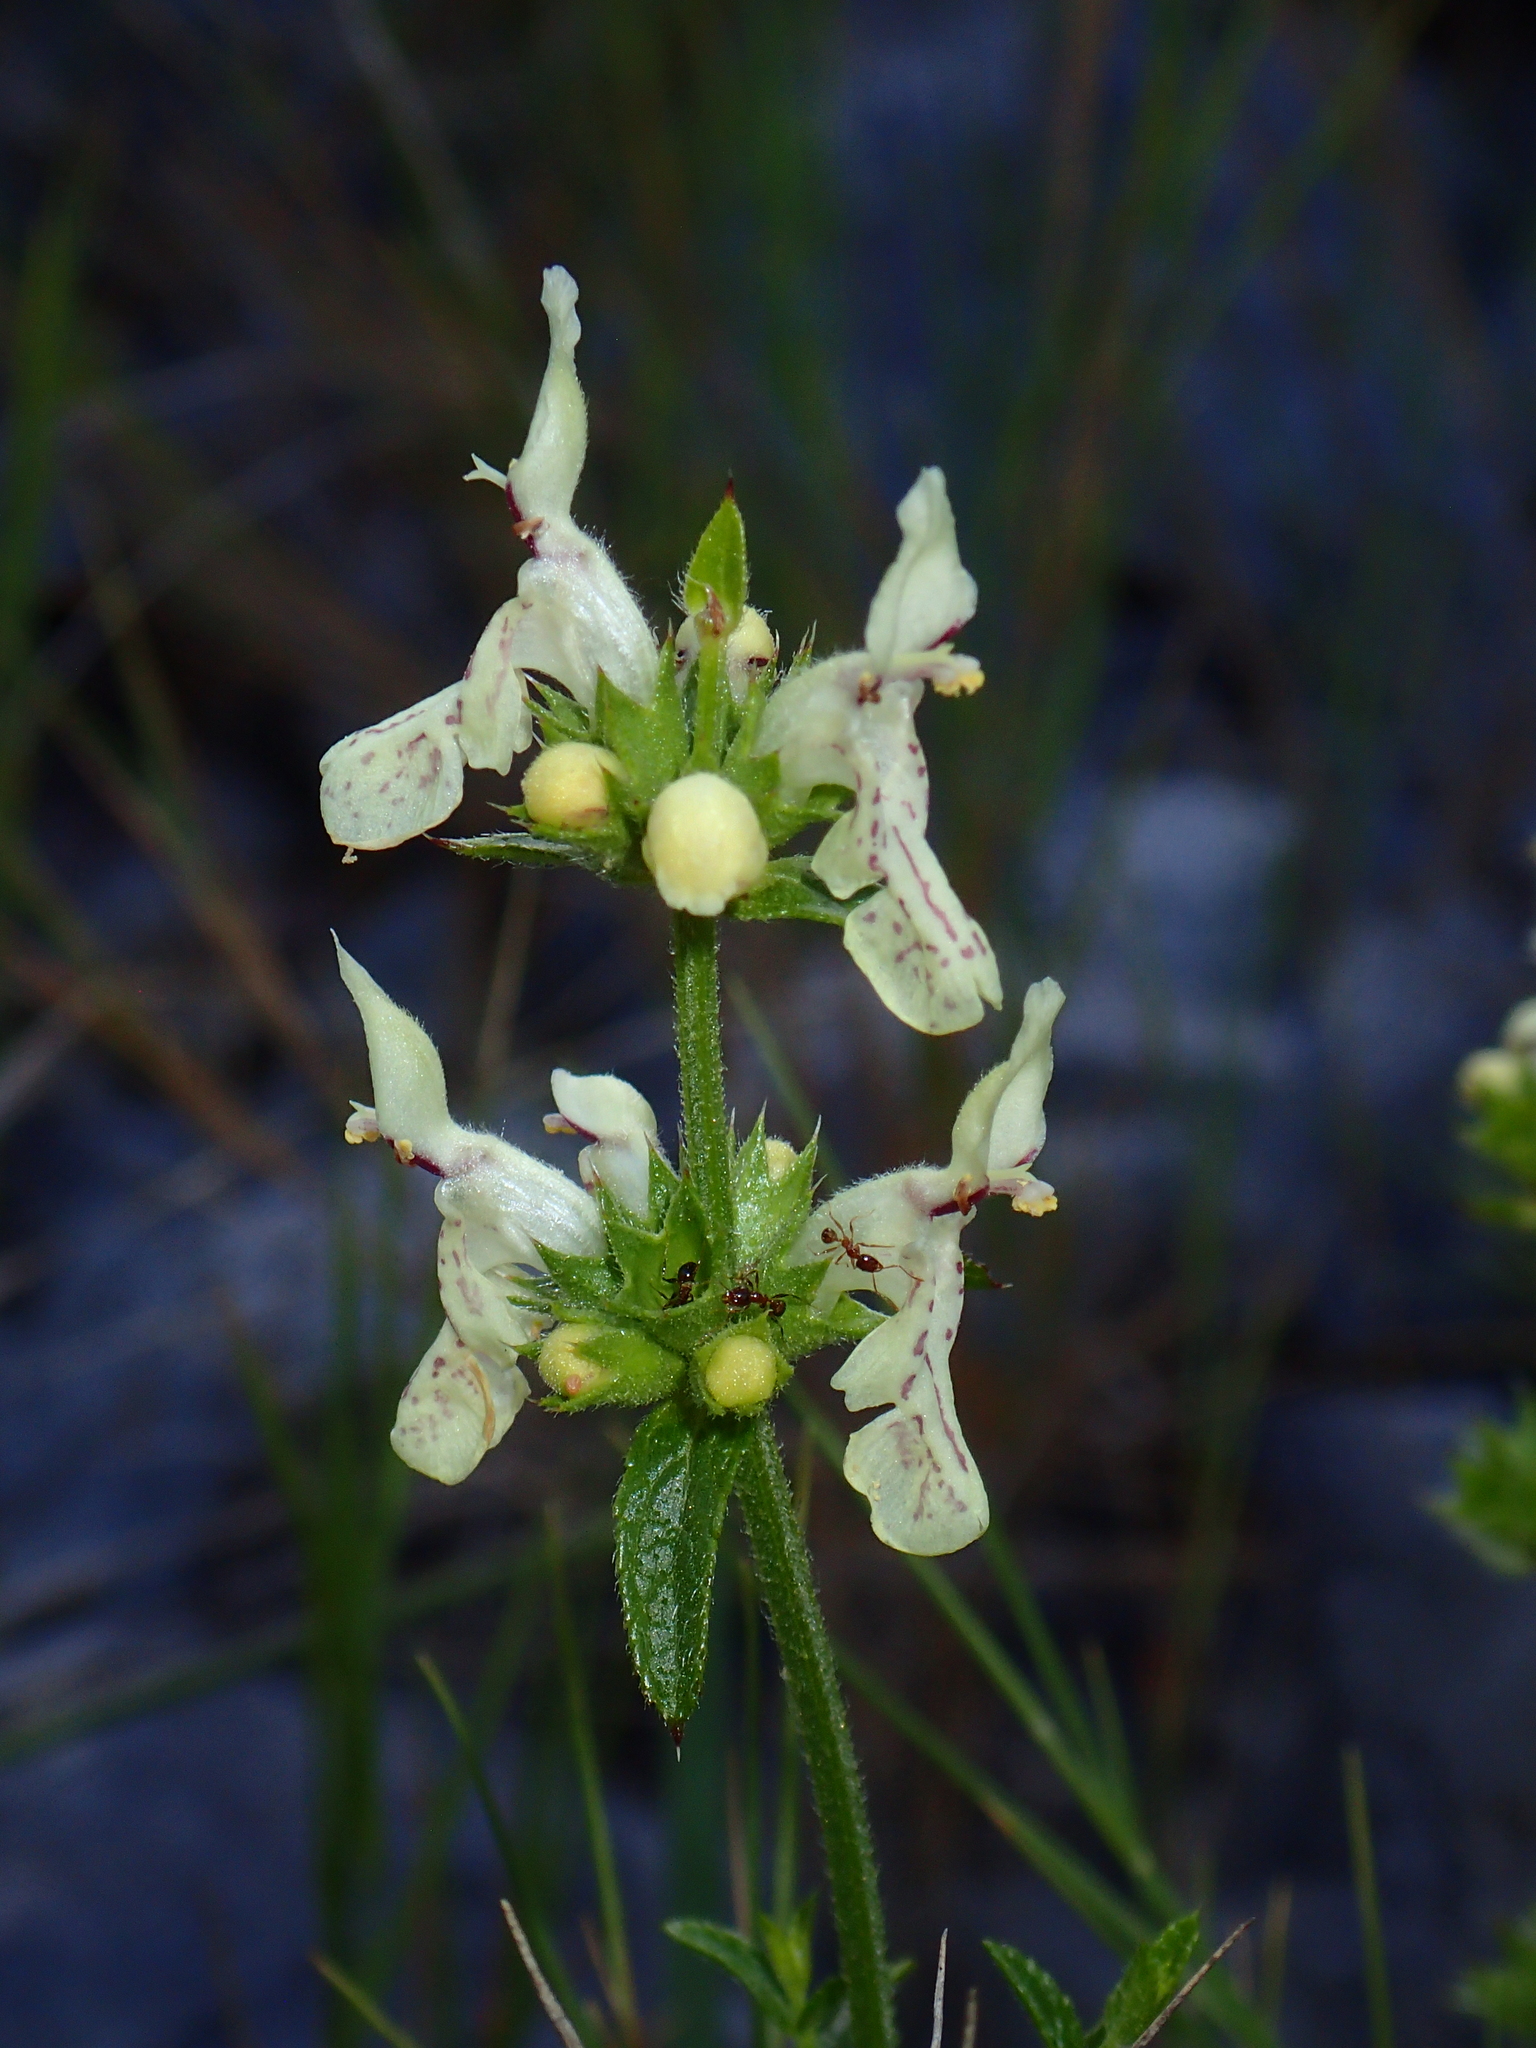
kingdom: Plantae
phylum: Tracheophyta
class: Magnoliopsida
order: Lamiales
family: Lamiaceae
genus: Stachys
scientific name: Stachys recta
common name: Perennial yellow-woundwort
